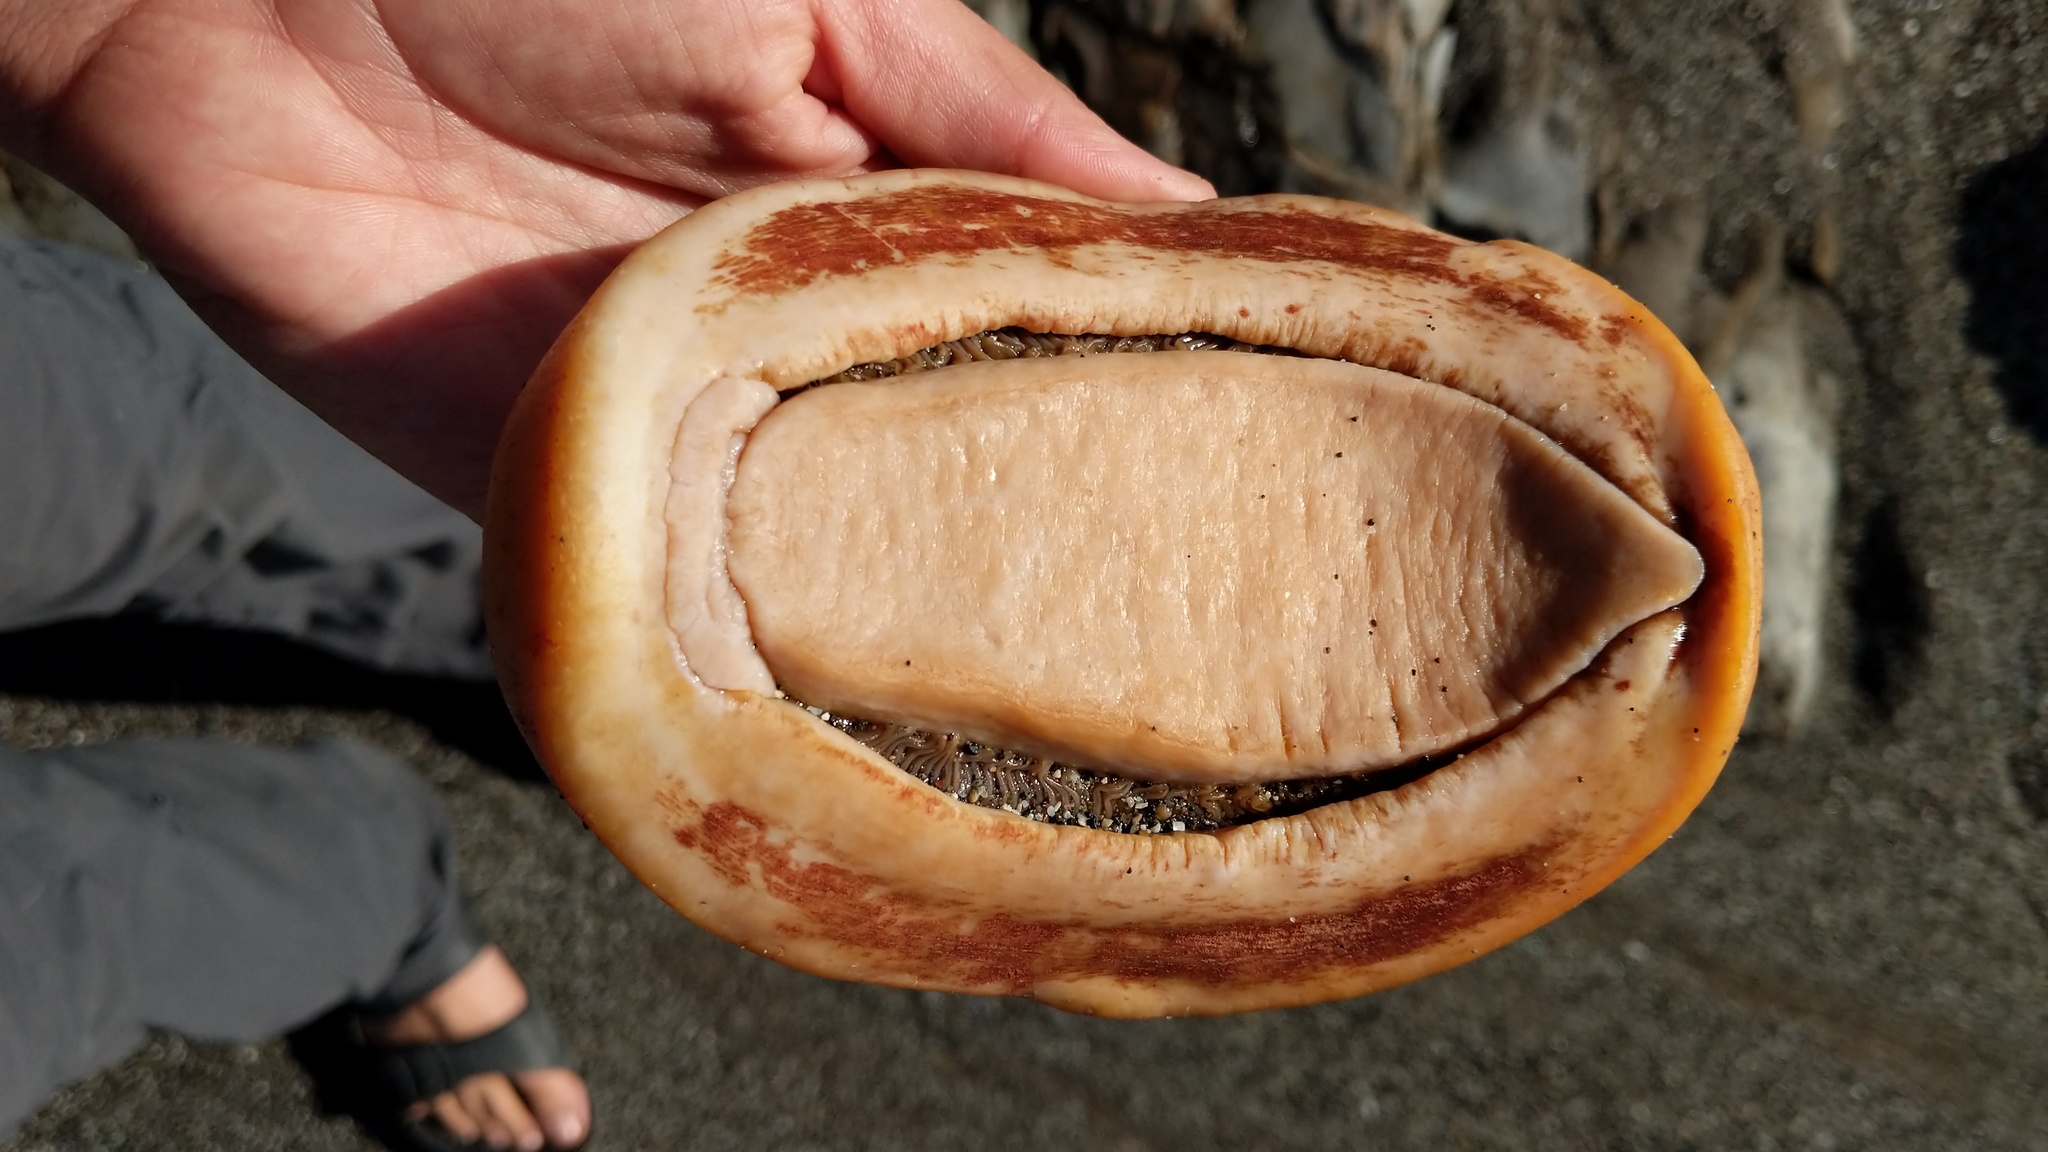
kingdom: Animalia
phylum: Mollusca
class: Polyplacophora
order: Chitonida
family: Acanthochitonidae
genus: Cryptochiton
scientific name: Cryptochiton stelleri
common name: Giant pacific chiton
